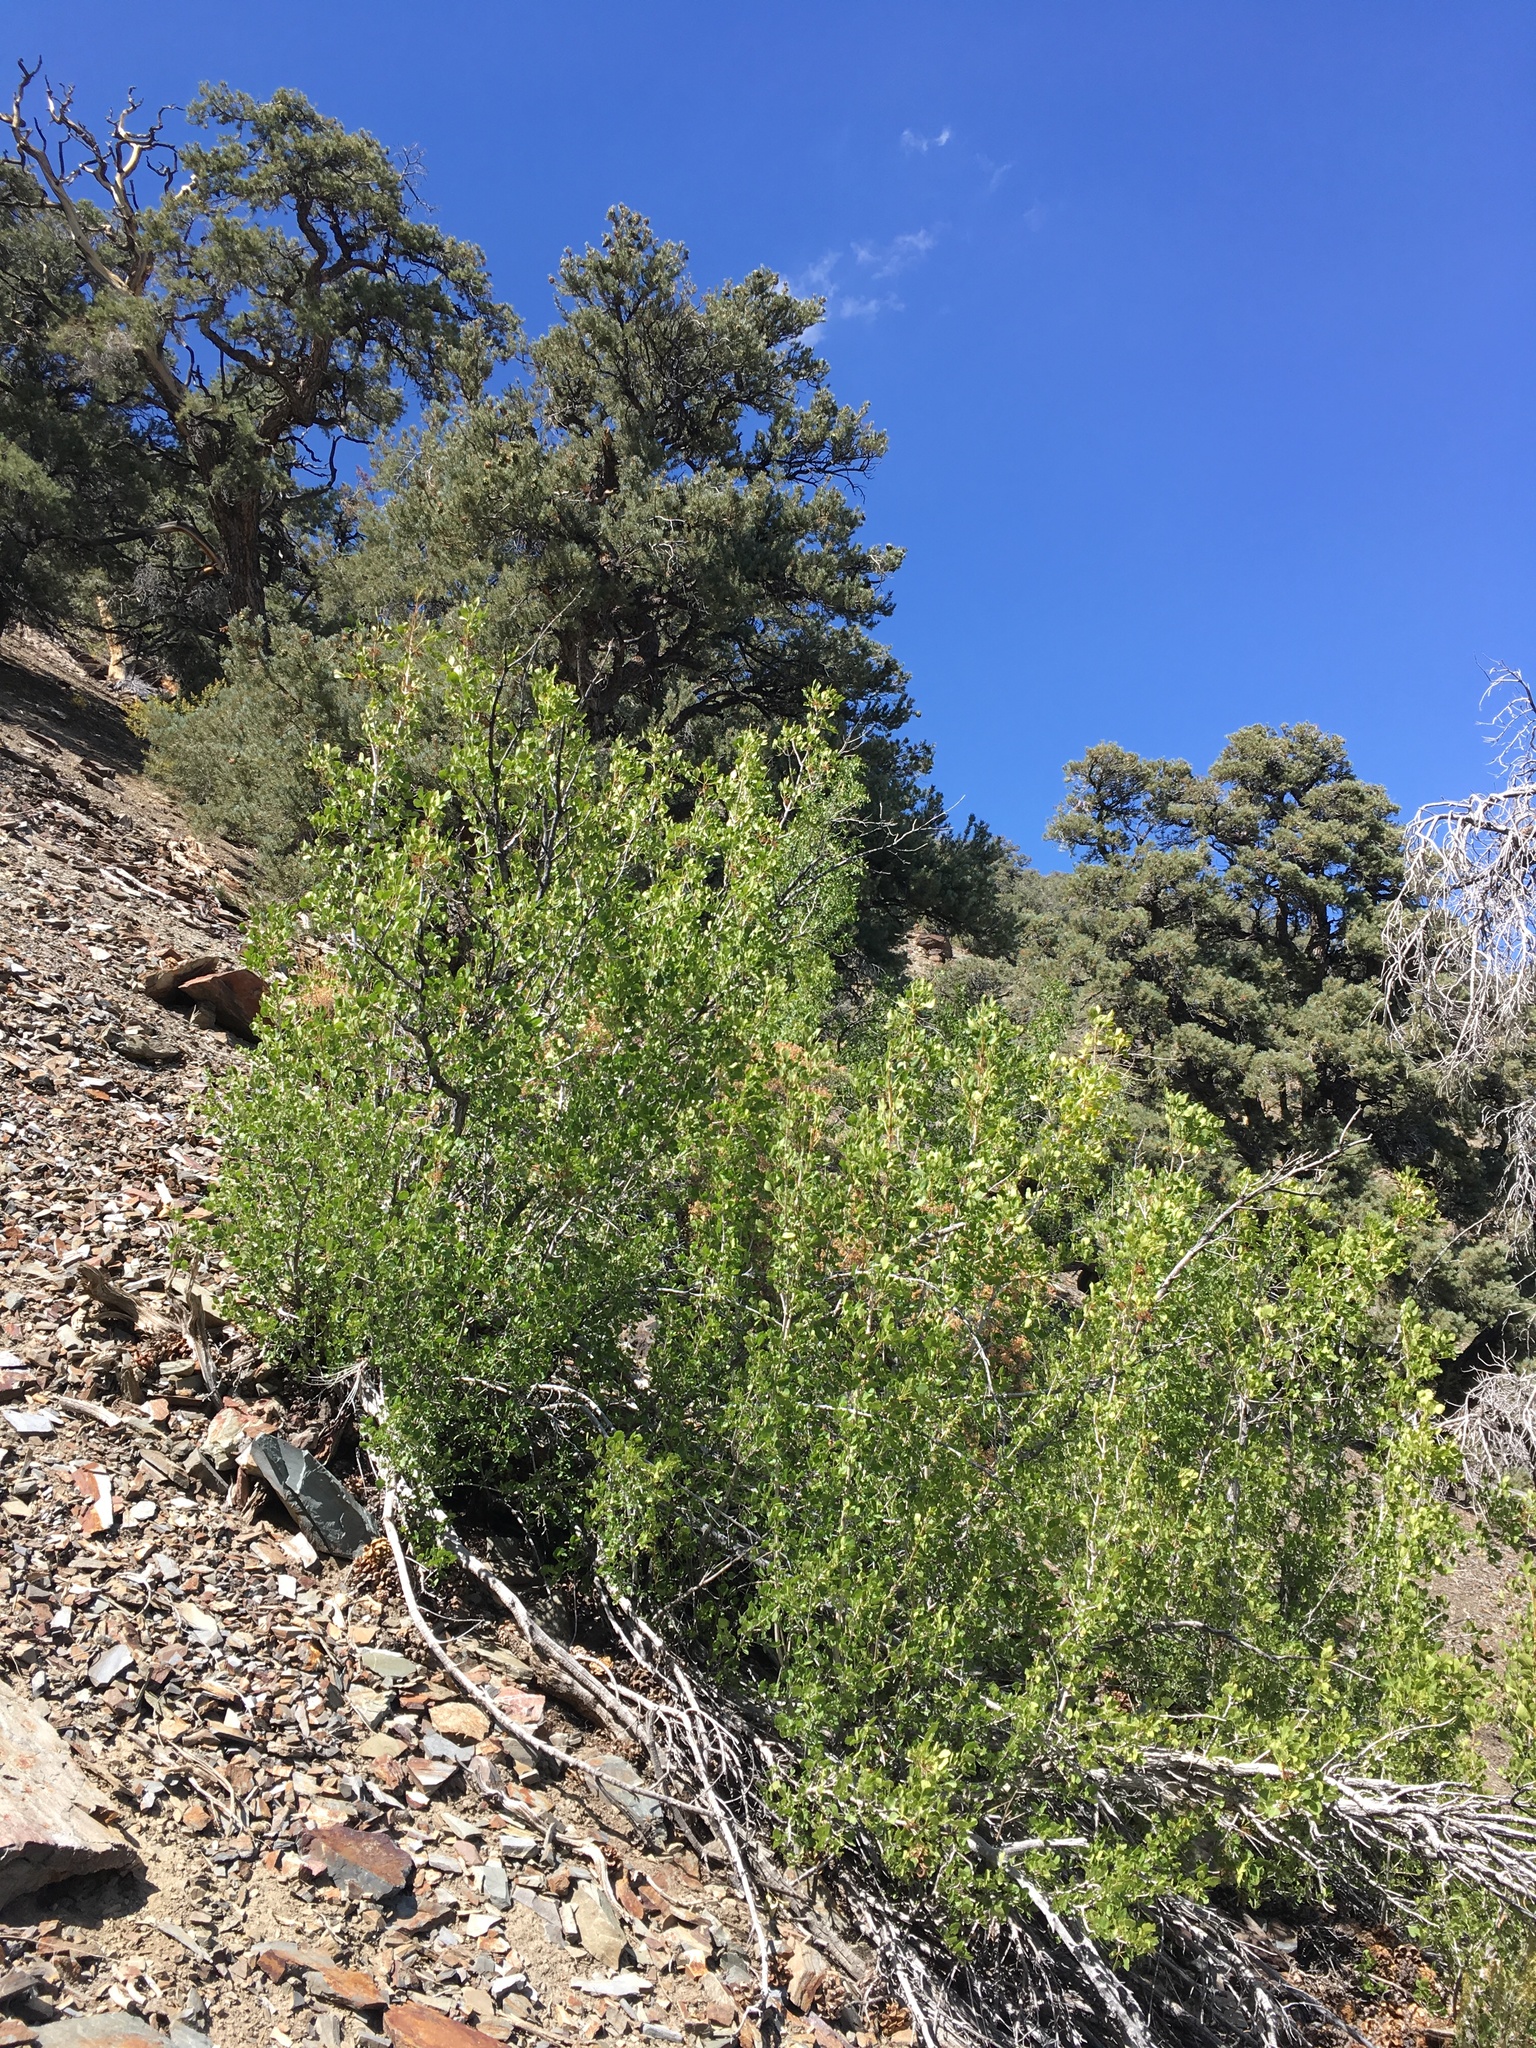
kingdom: Plantae
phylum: Tracheophyta
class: Magnoliopsida
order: Lamiales
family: Oleaceae
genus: Fraxinus
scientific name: Fraxinus anomala
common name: Utah ash
